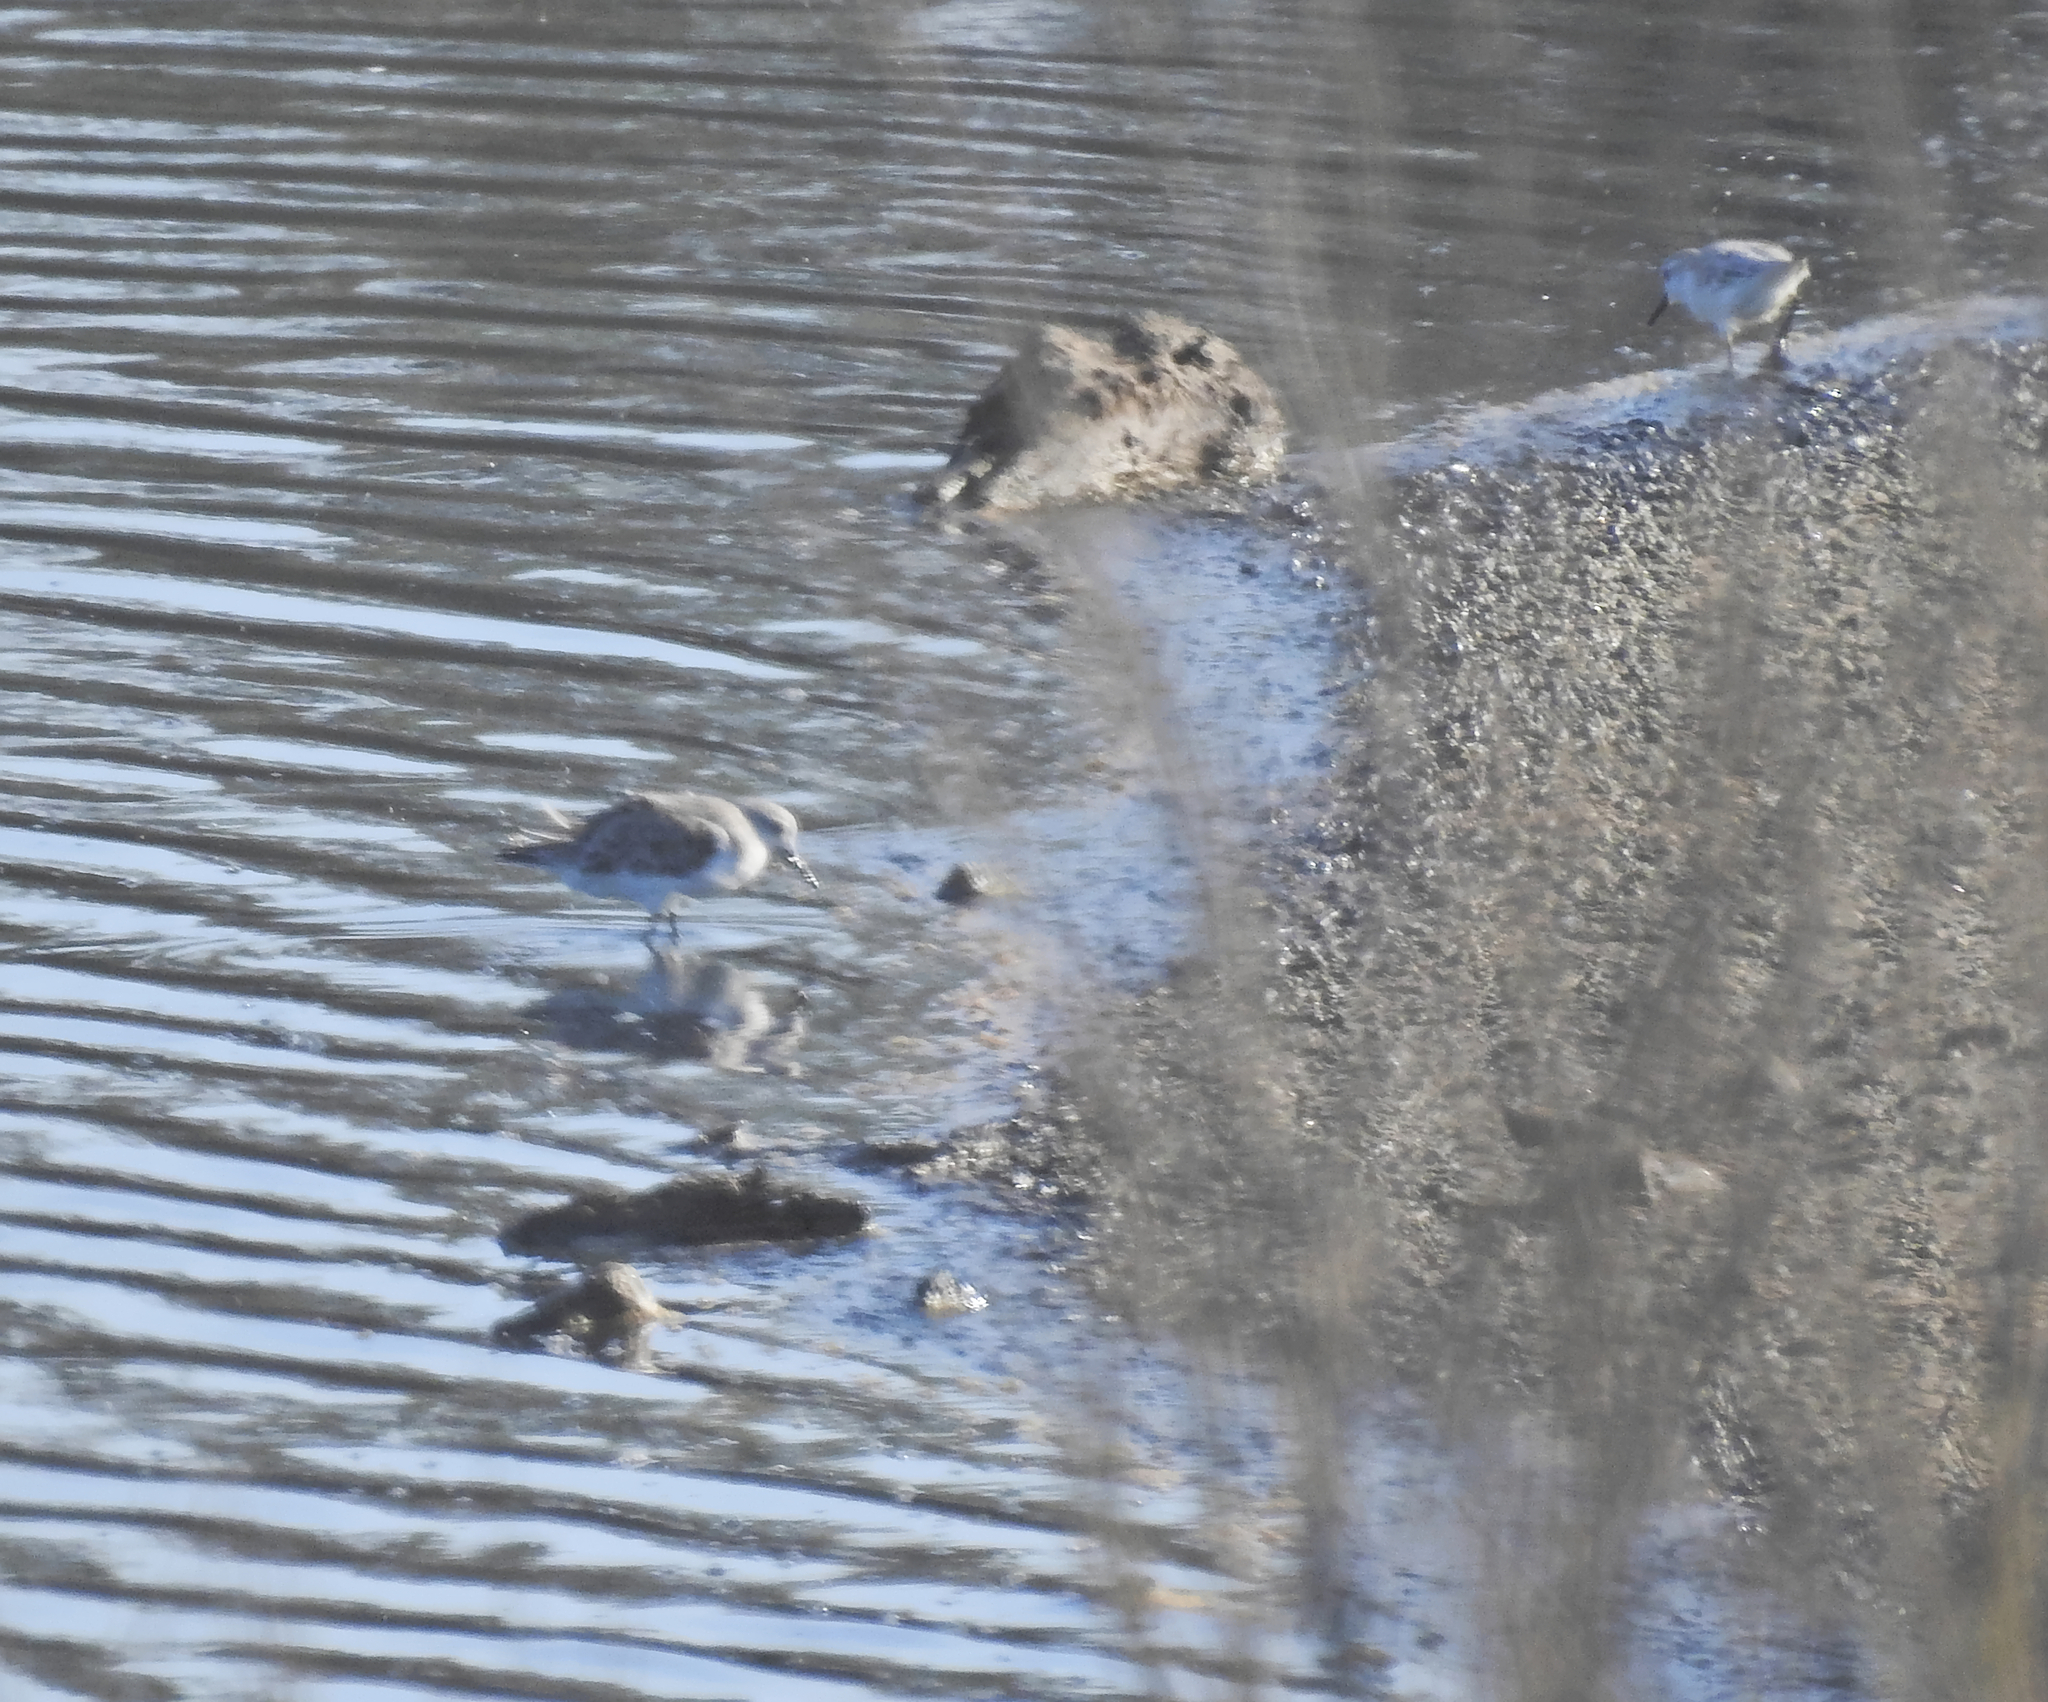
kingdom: Animalia
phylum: Chordata
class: Aves
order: Charadriiformes
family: Scolopacidae
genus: Calidris
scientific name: Calidris minuta
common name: Little stint
